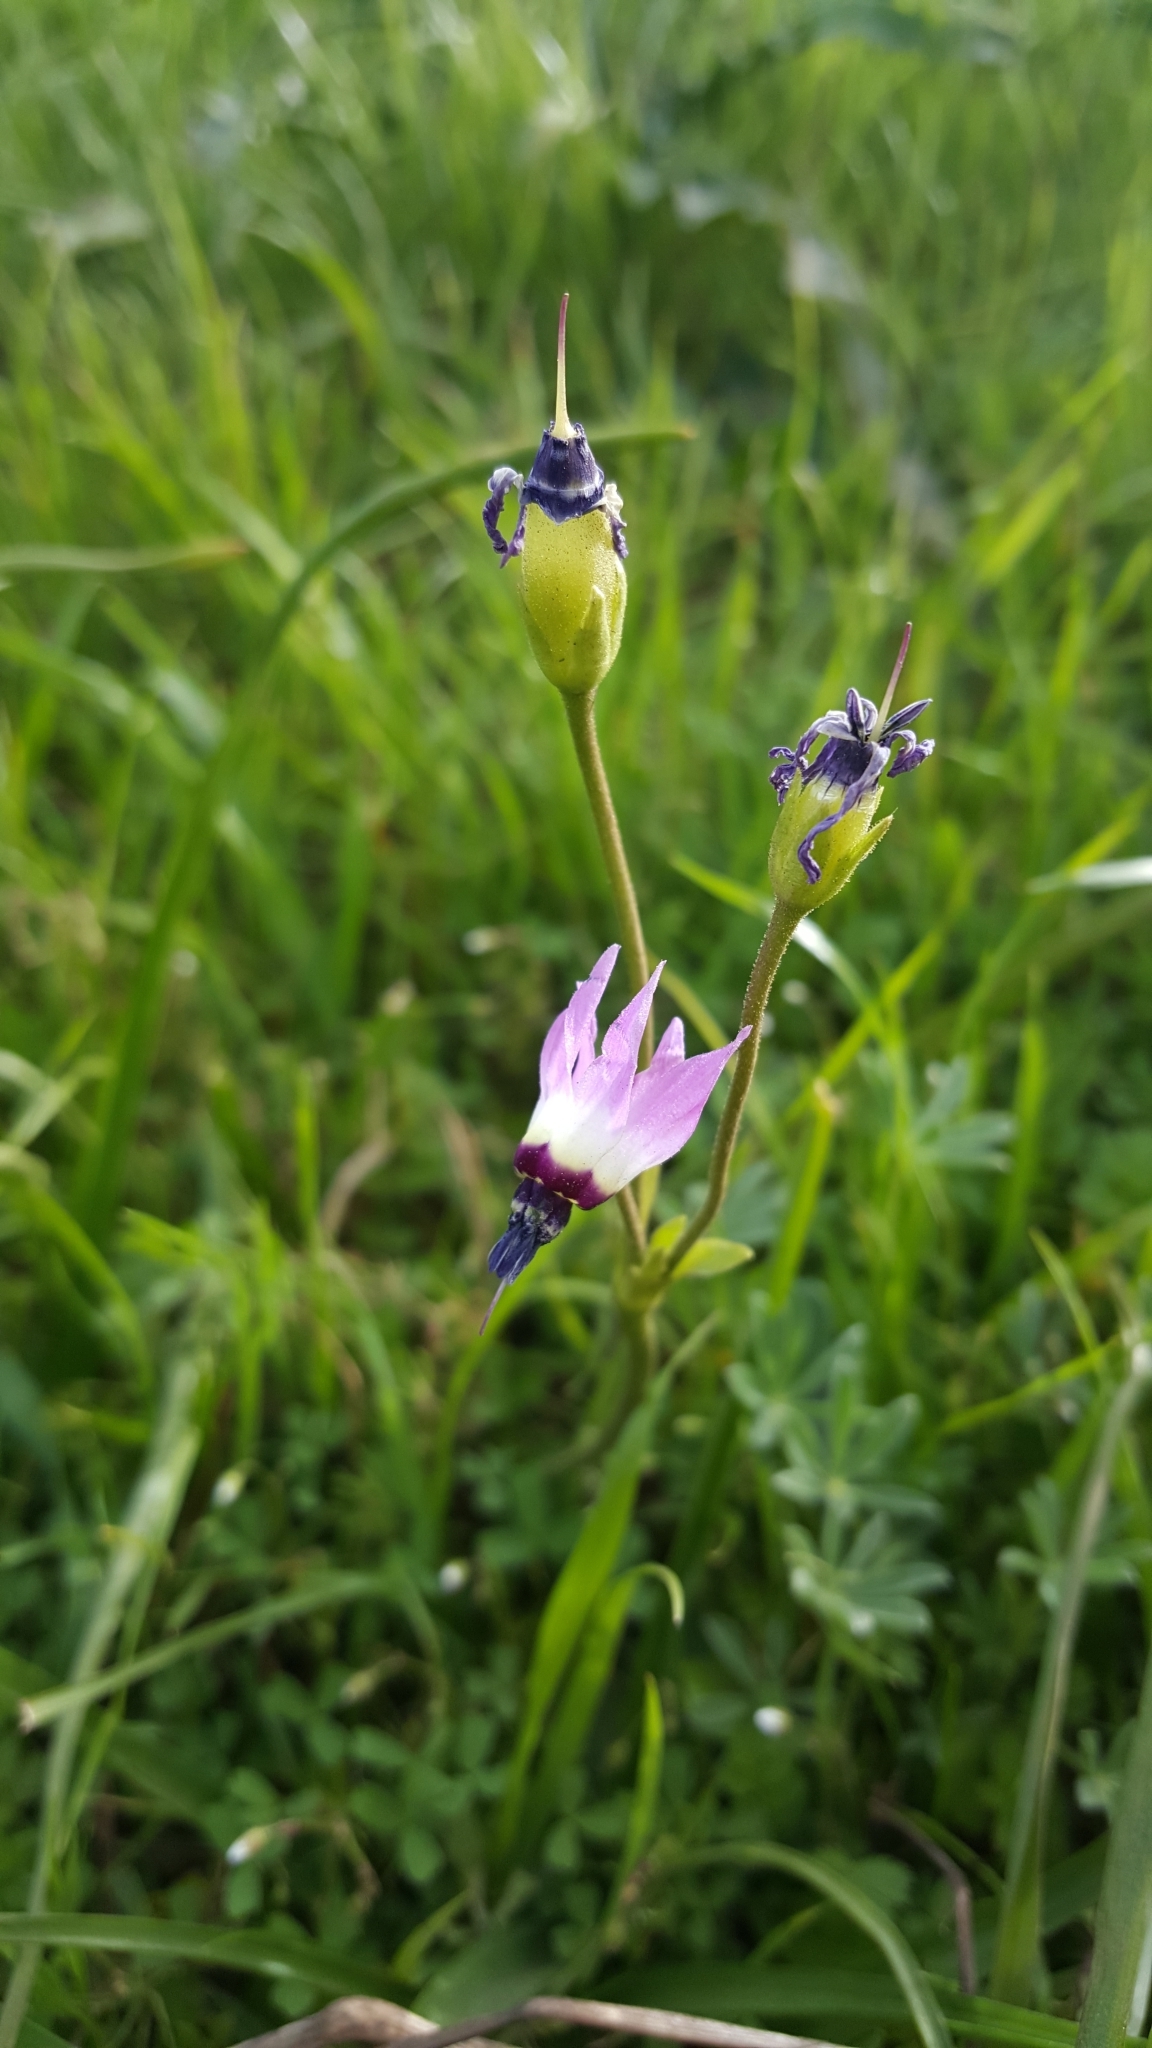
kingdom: Plantae
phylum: Tracheophyta
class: Magnoliopsida
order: Ericales
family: Primulaceae
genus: Dodecatheon
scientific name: Dodecatheon clevelandii
